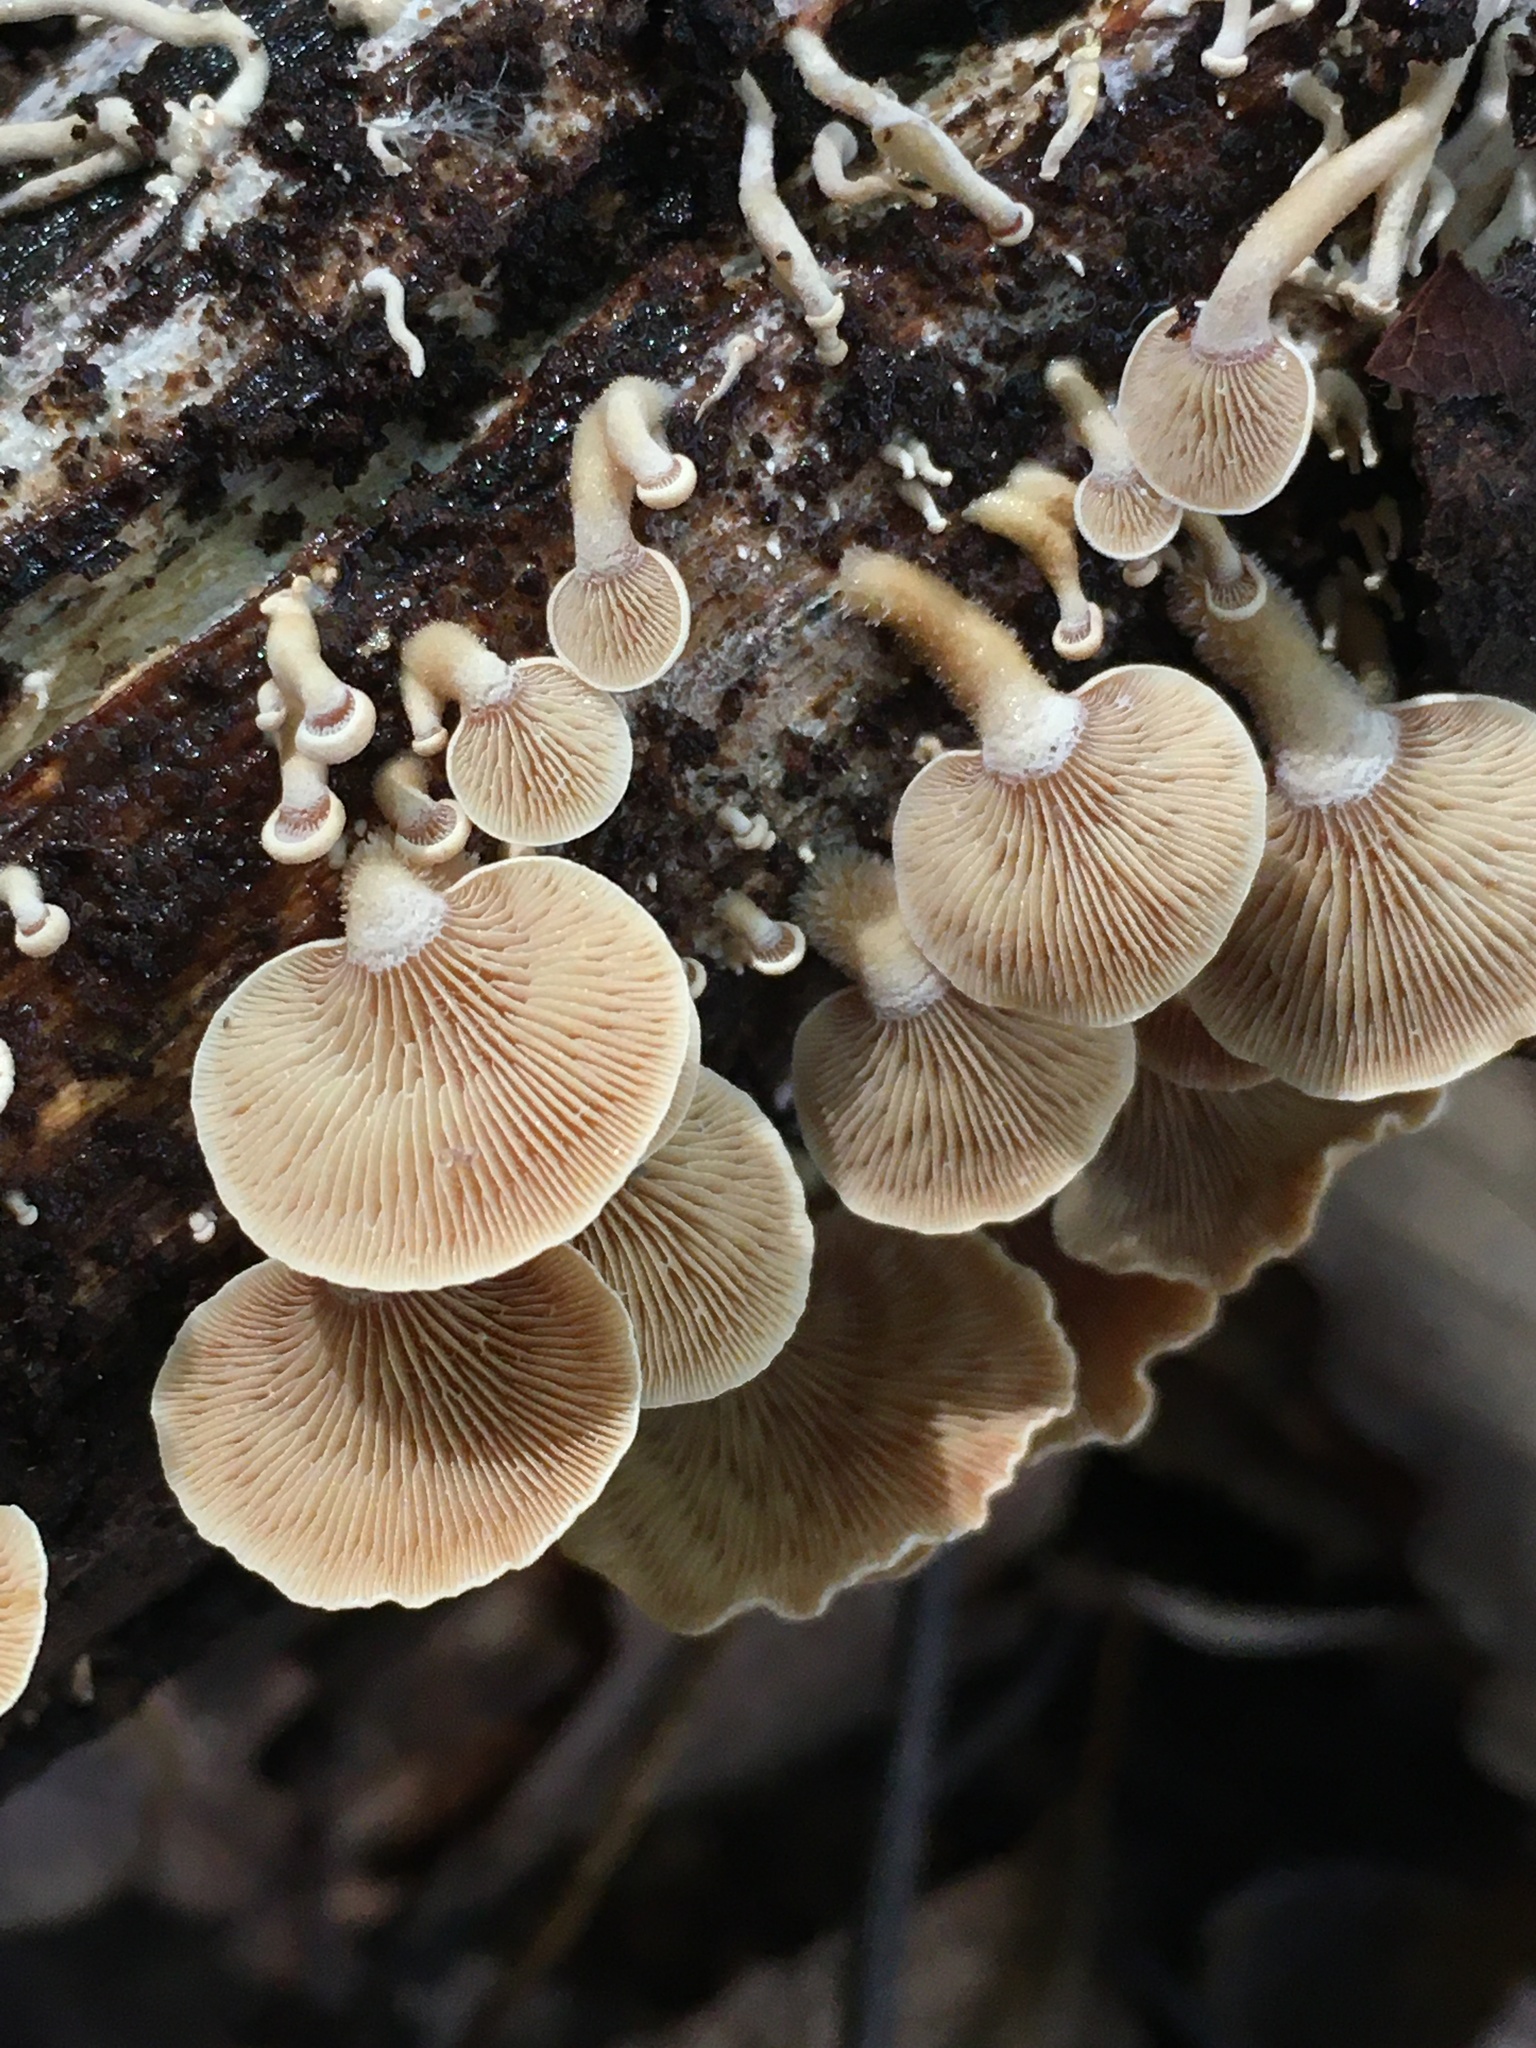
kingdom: Fungi
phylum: Basidiomycota
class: Agaricomycetes
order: Agaricales
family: Mycenaceae
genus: Panellus
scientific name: Panellus stipticus
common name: Bitter oysterling
